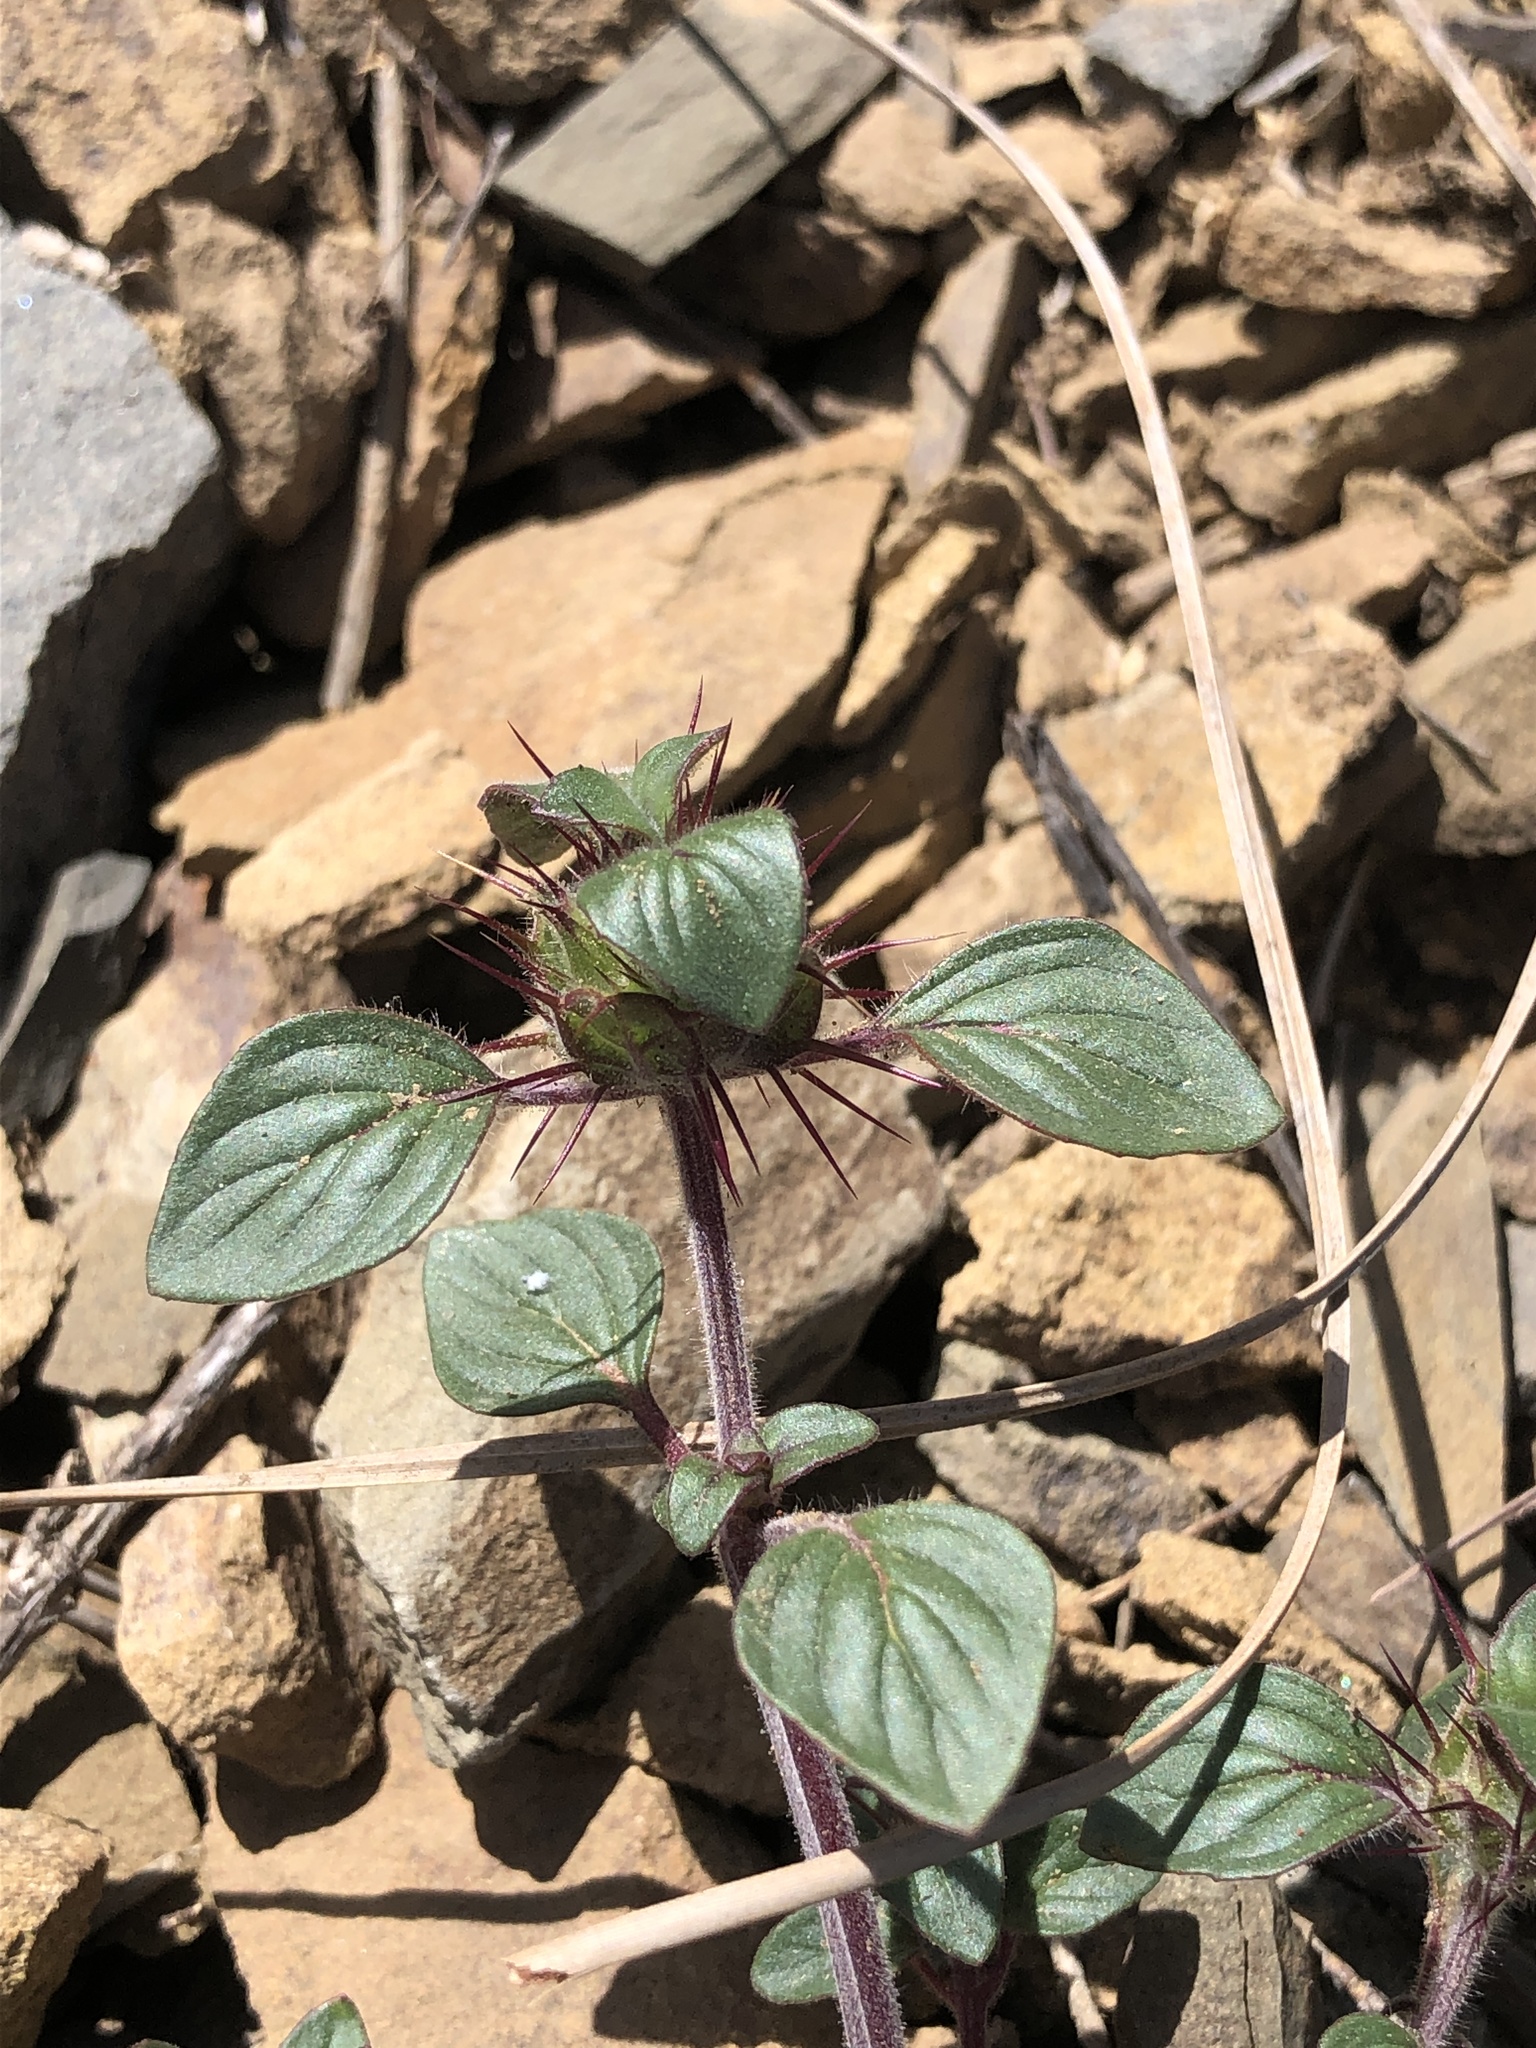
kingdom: Plantae
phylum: Tracheophyta
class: Magnoliopsida
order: Lamiales
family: Lamiaceae
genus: Acanthomintha
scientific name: Acanthomintha lanceolata
